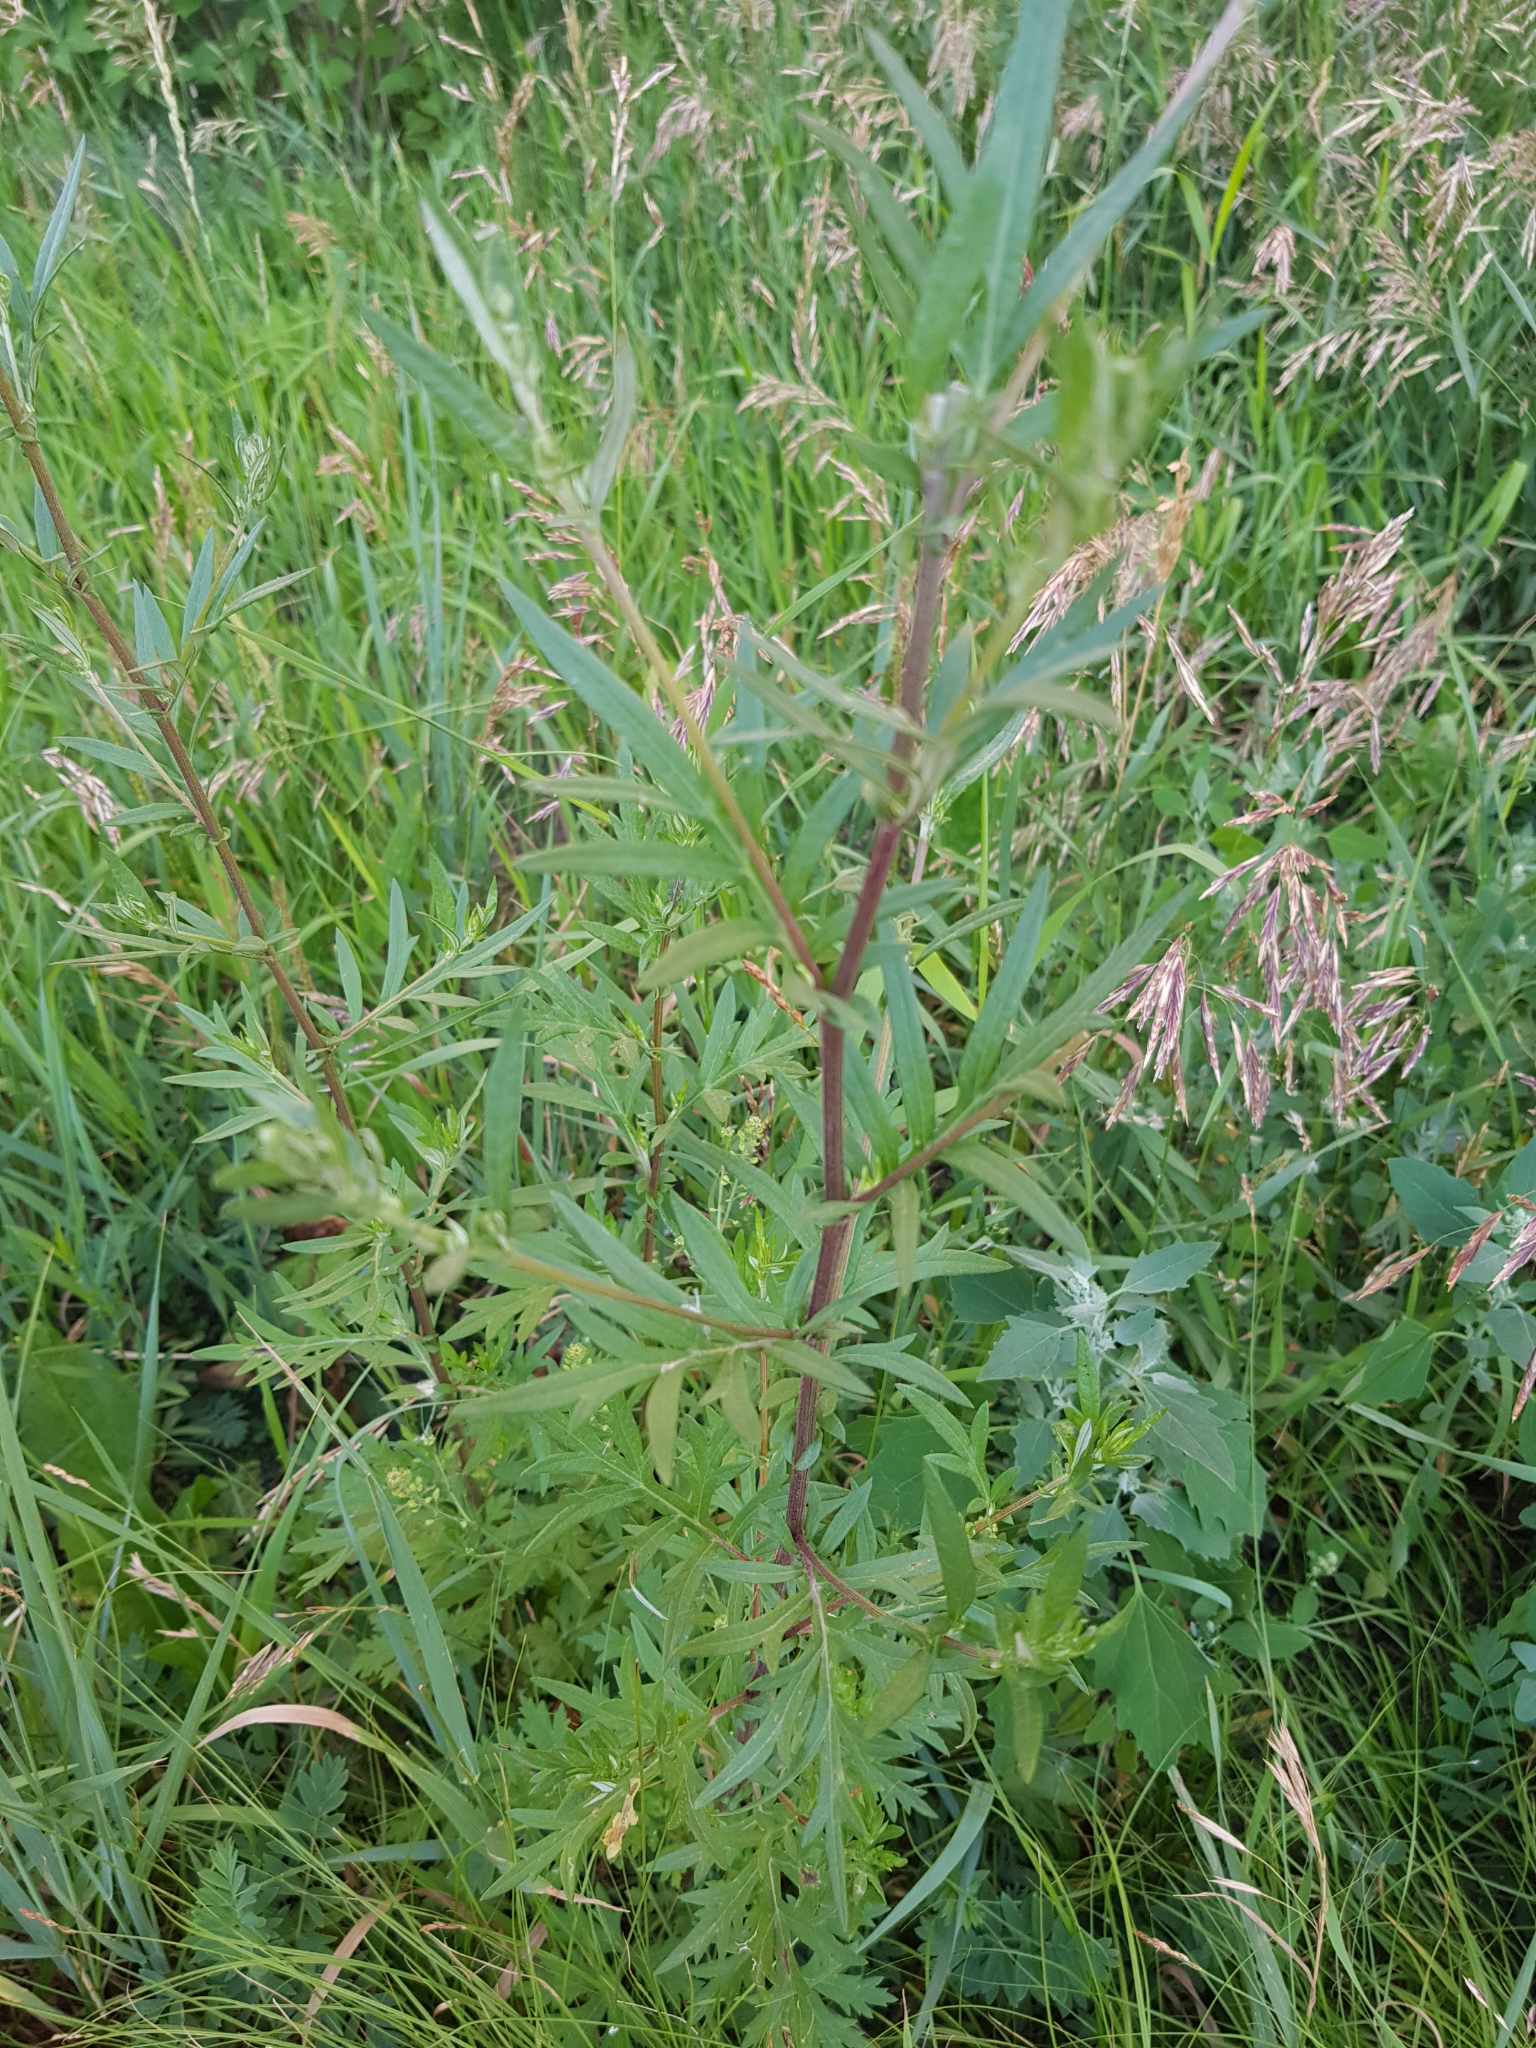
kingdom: Plantae
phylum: Tracheophyta
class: Magnoliopsida
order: Asterales
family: Asteraceae
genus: Artemisia
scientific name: Artemisia vulgaris
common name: Mugwort
